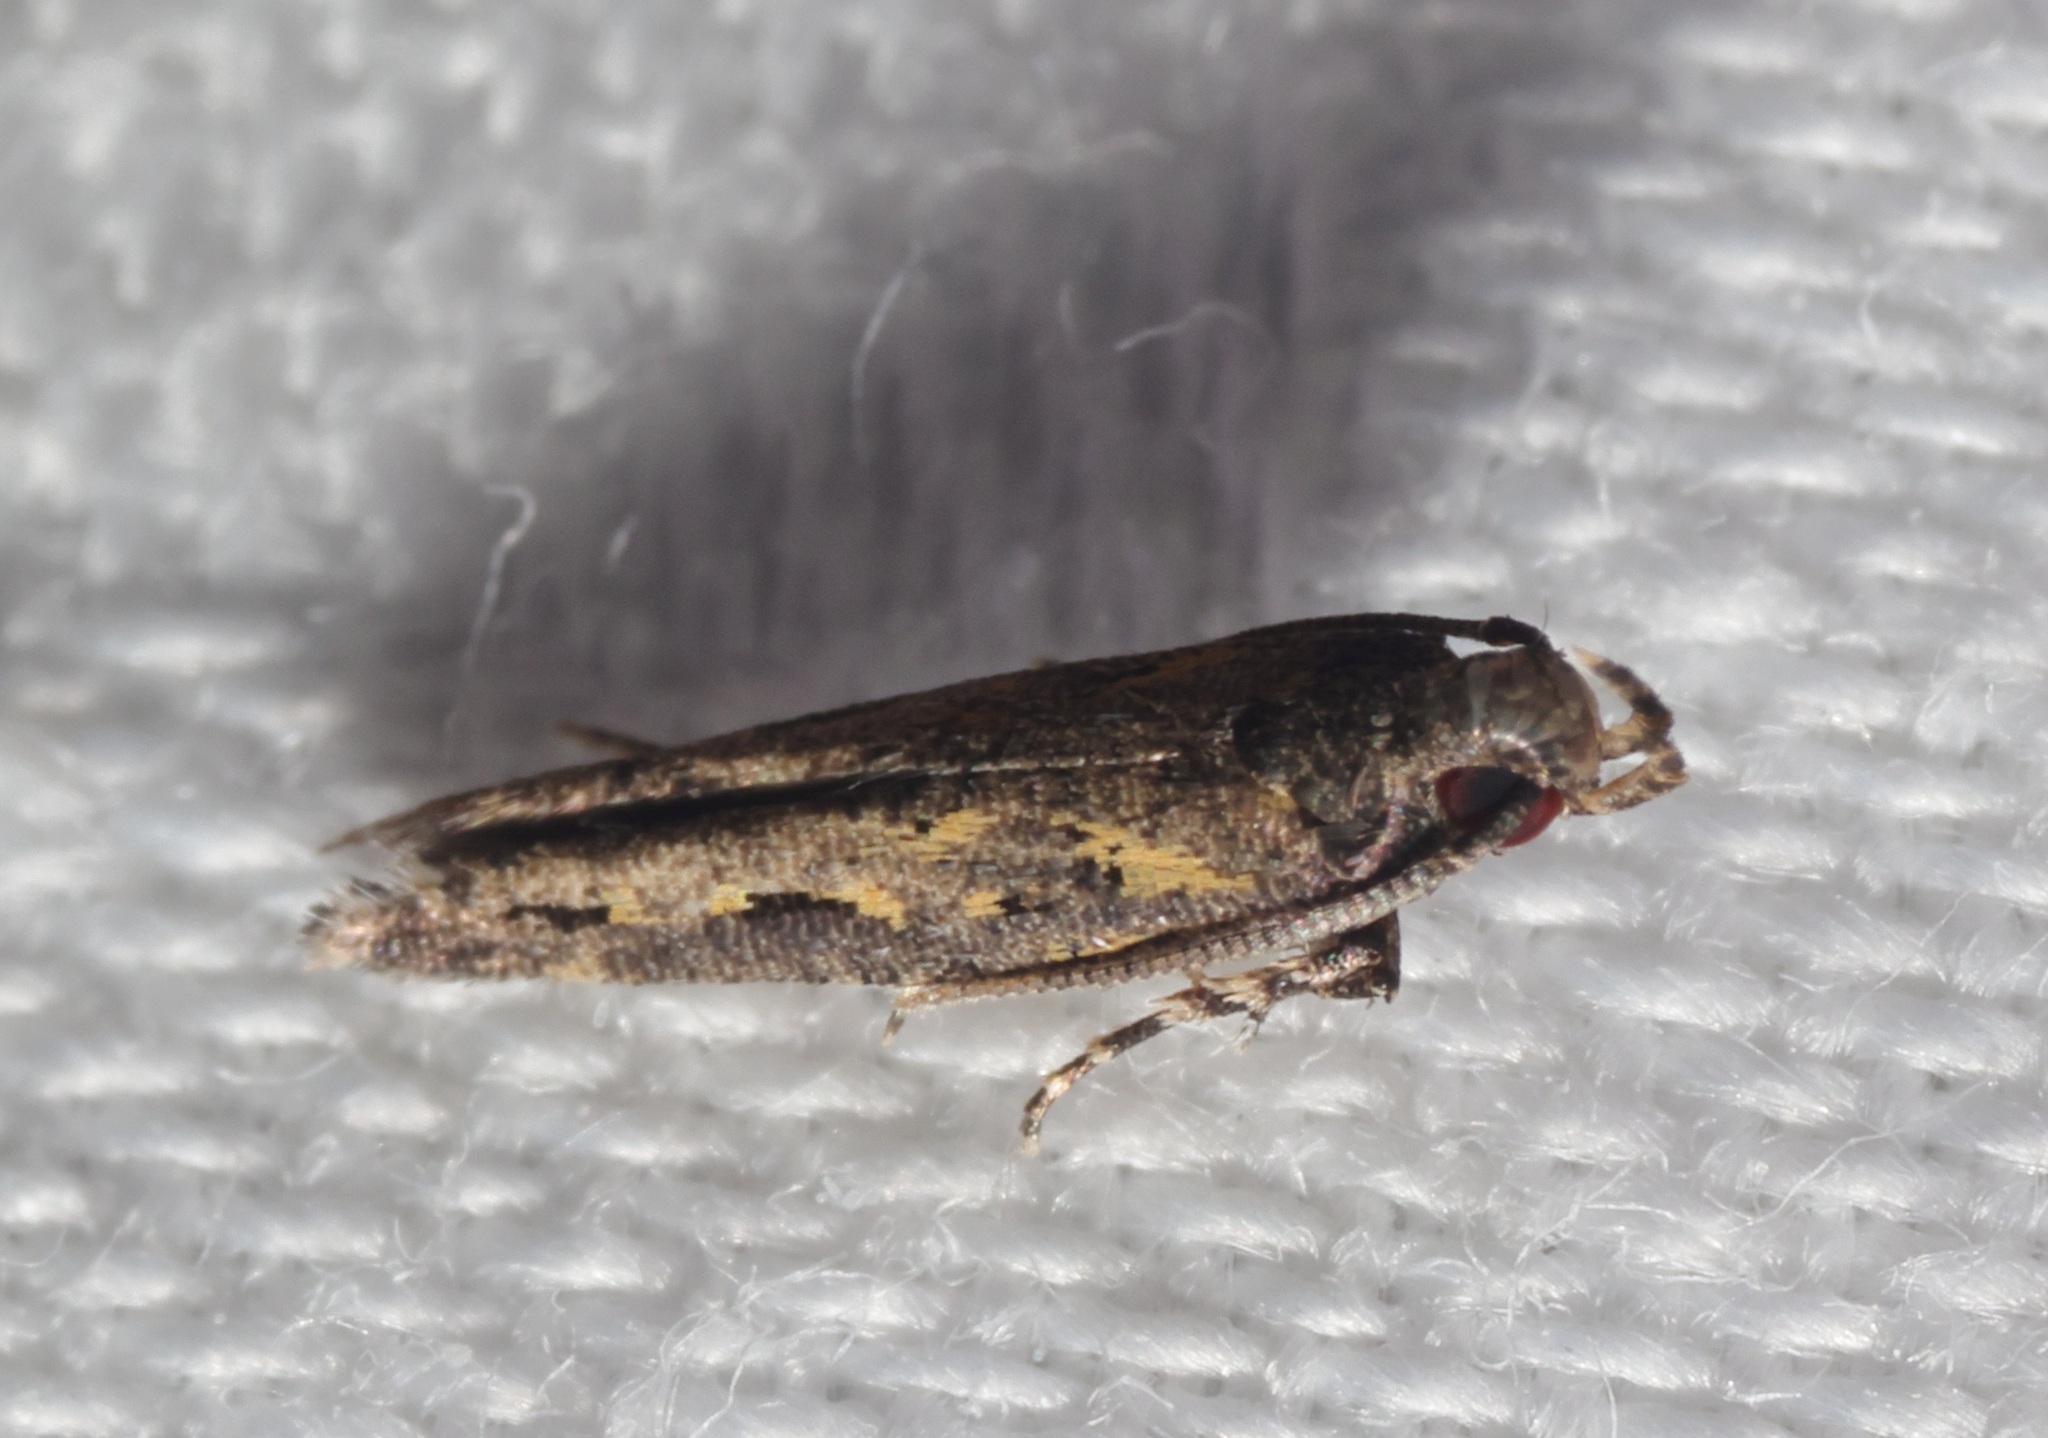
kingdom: Animalia
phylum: Arthropoda
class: Insecta
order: Lepidoptera
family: Gelechiidae
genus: Empedaula
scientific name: Empedaula insipiens
